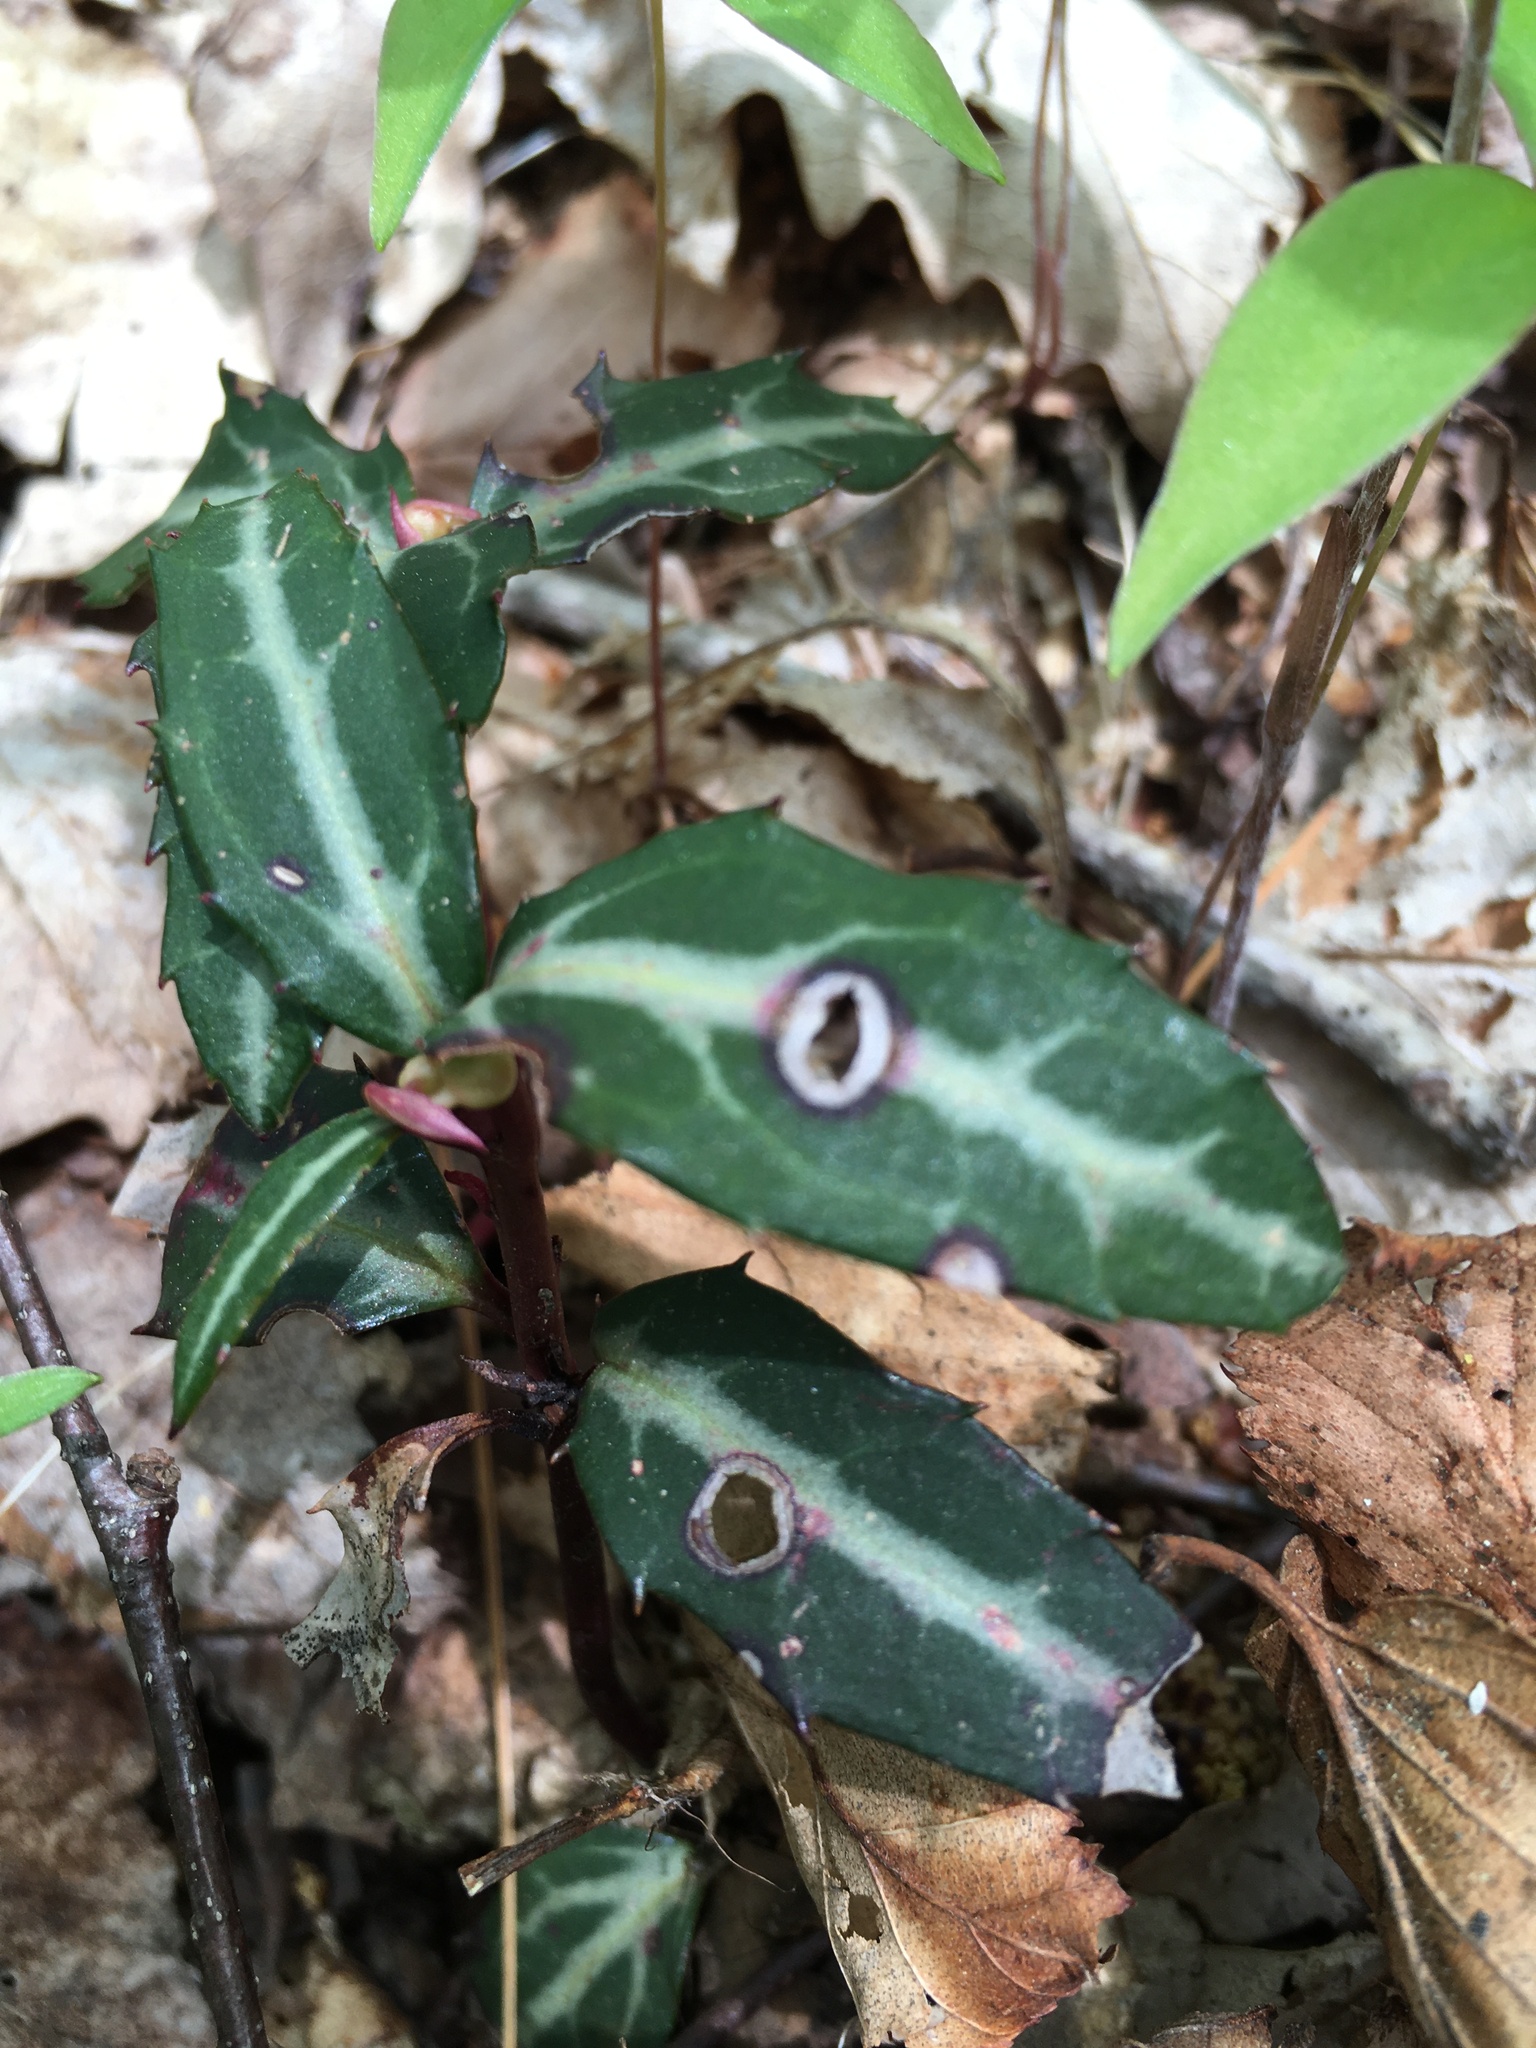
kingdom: Plantae
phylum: Tracheophyta
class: Magnoliopsida
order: Ericales
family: Ericaceae
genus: Chimaphila
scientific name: Chimaphila maculata
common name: Spotted pipsissewa
